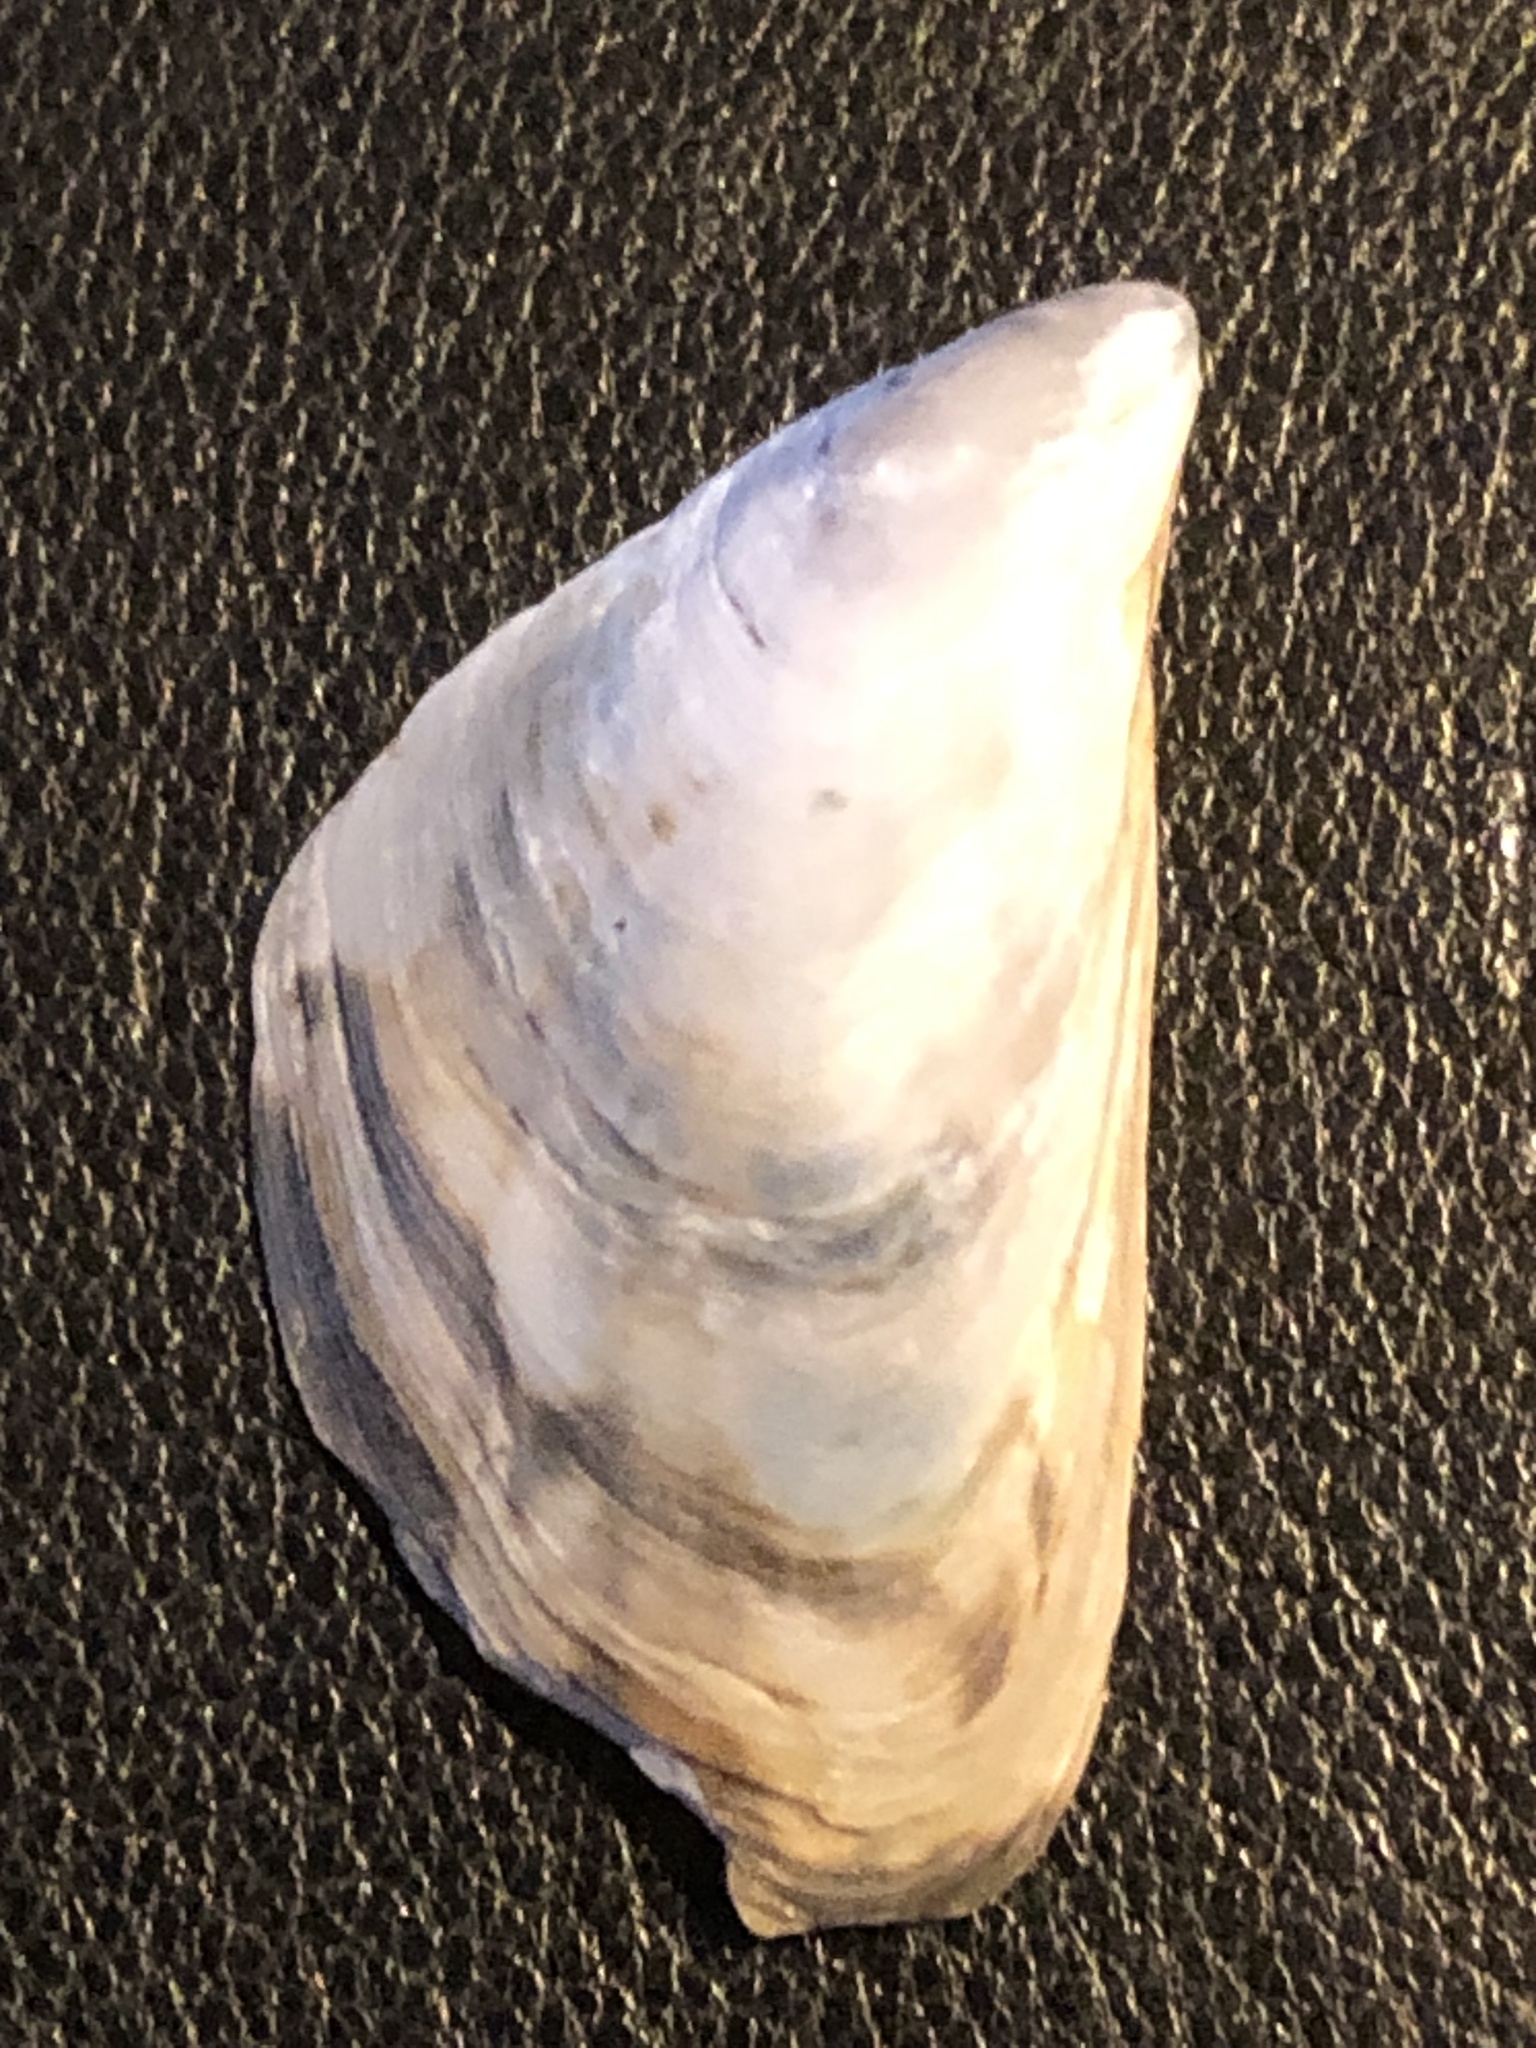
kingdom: Animalia
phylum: Mollusca
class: Bivalvia
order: Myida
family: Dreissenidae
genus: Dreissena
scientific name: Dreissena bugensis
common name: Quagga mussel
